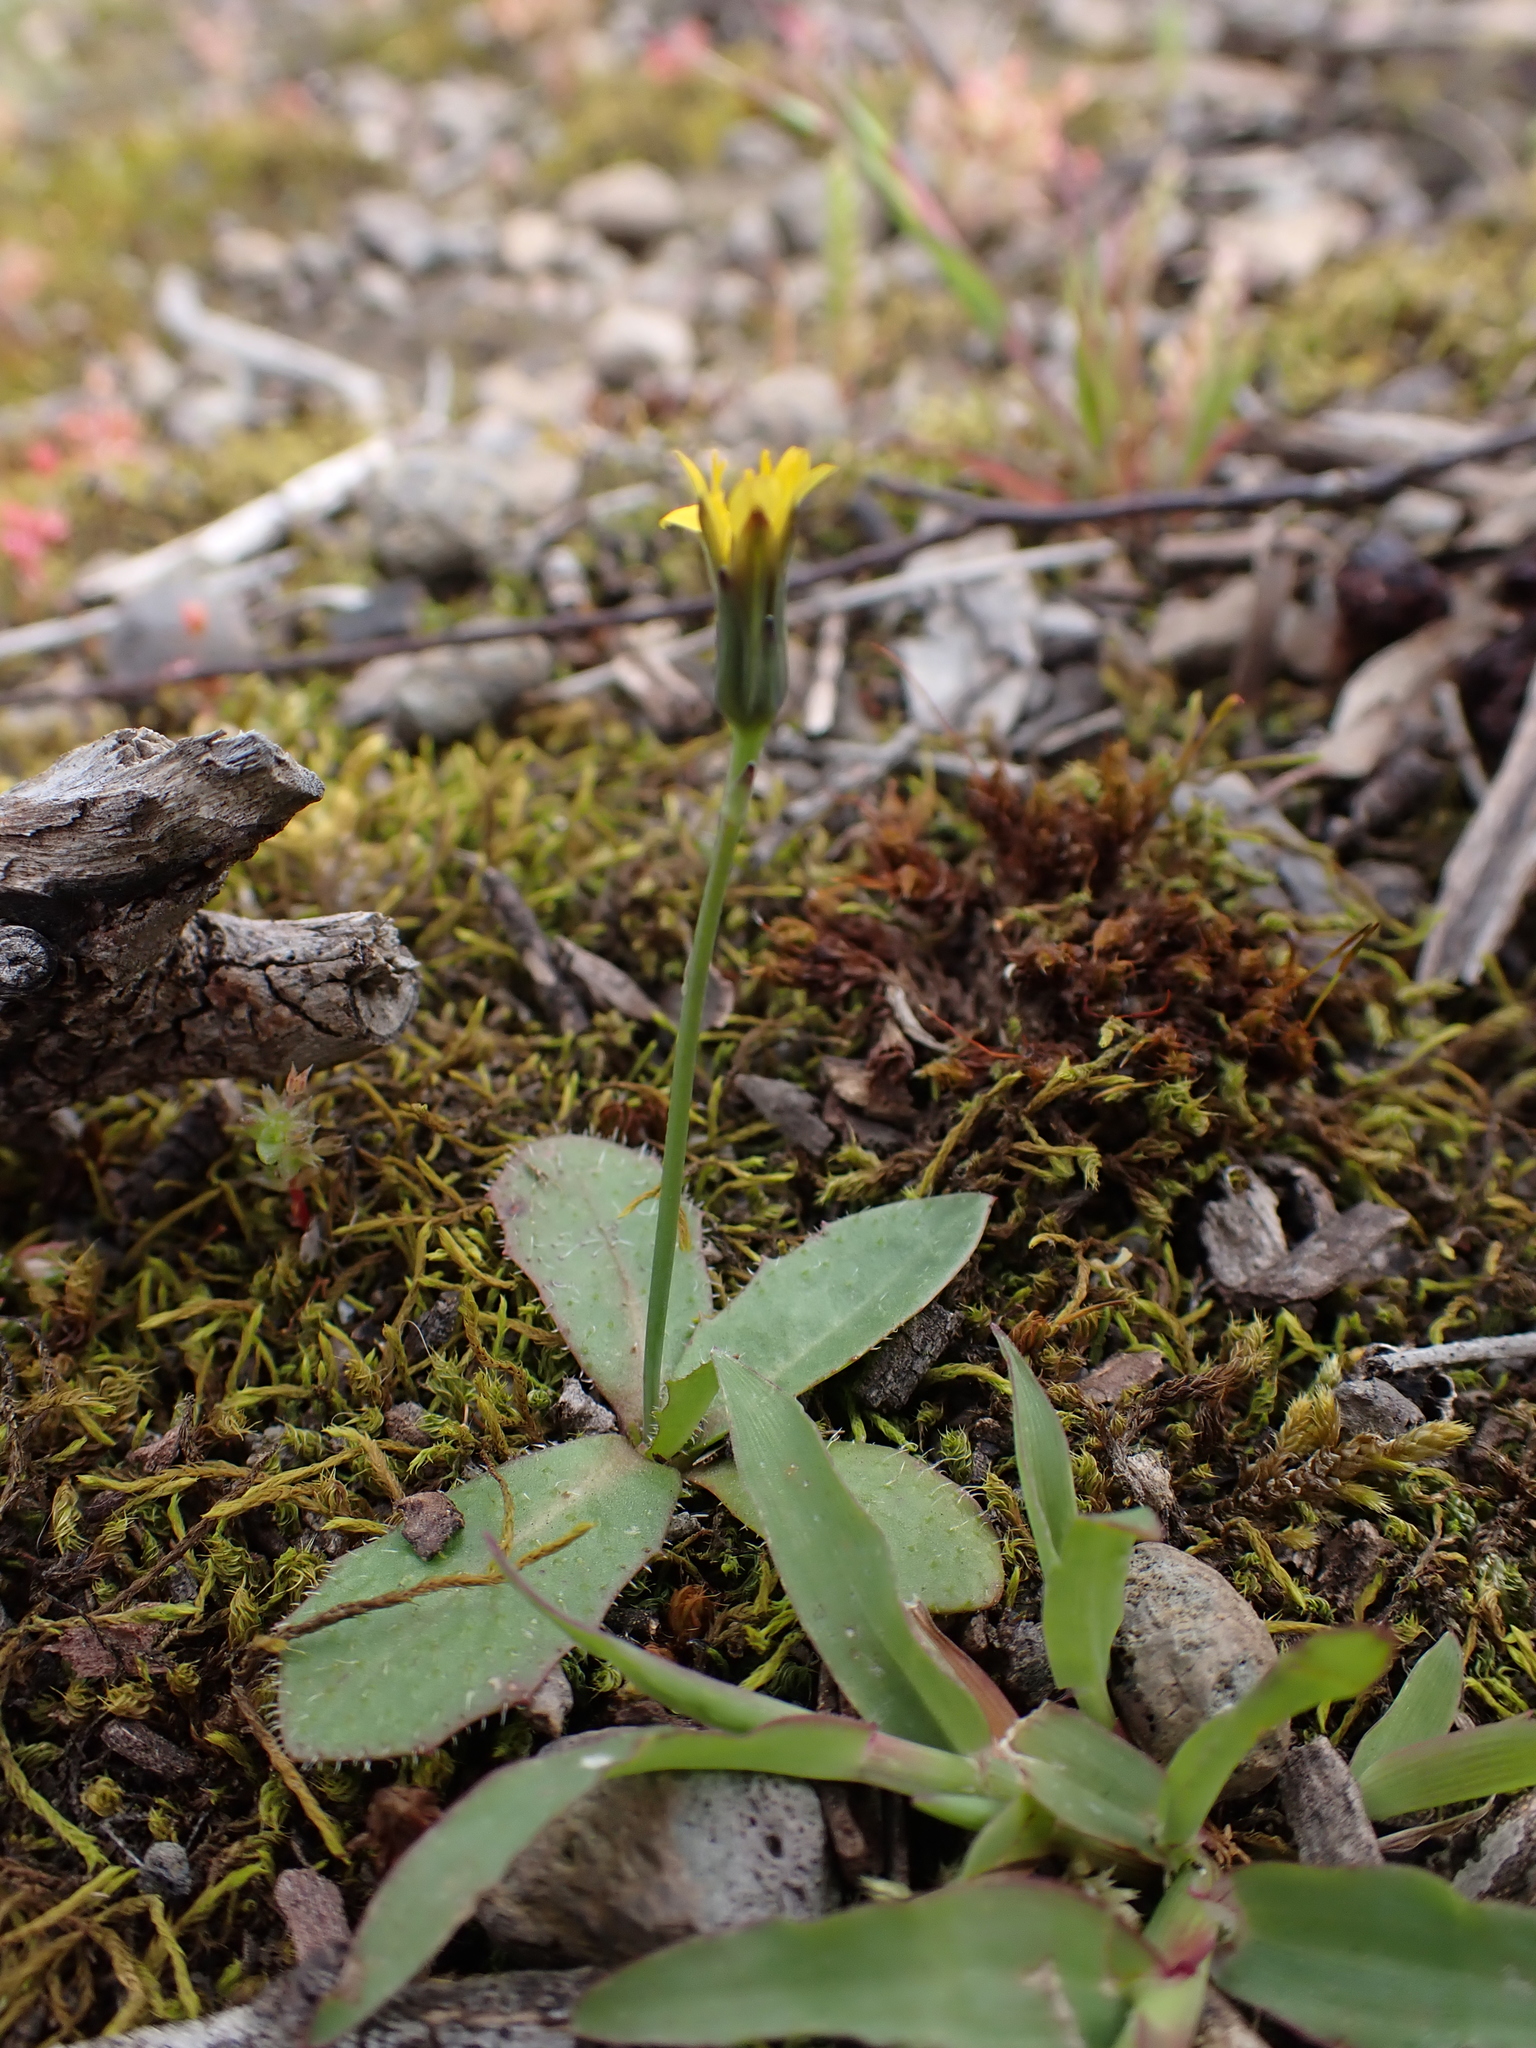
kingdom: Plantae
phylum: Tracheophyta
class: Magnoliopsida
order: Asterales
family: Asteraceae
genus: Hypochaeris
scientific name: Hypochaeris glabra
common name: Smooth catsear
